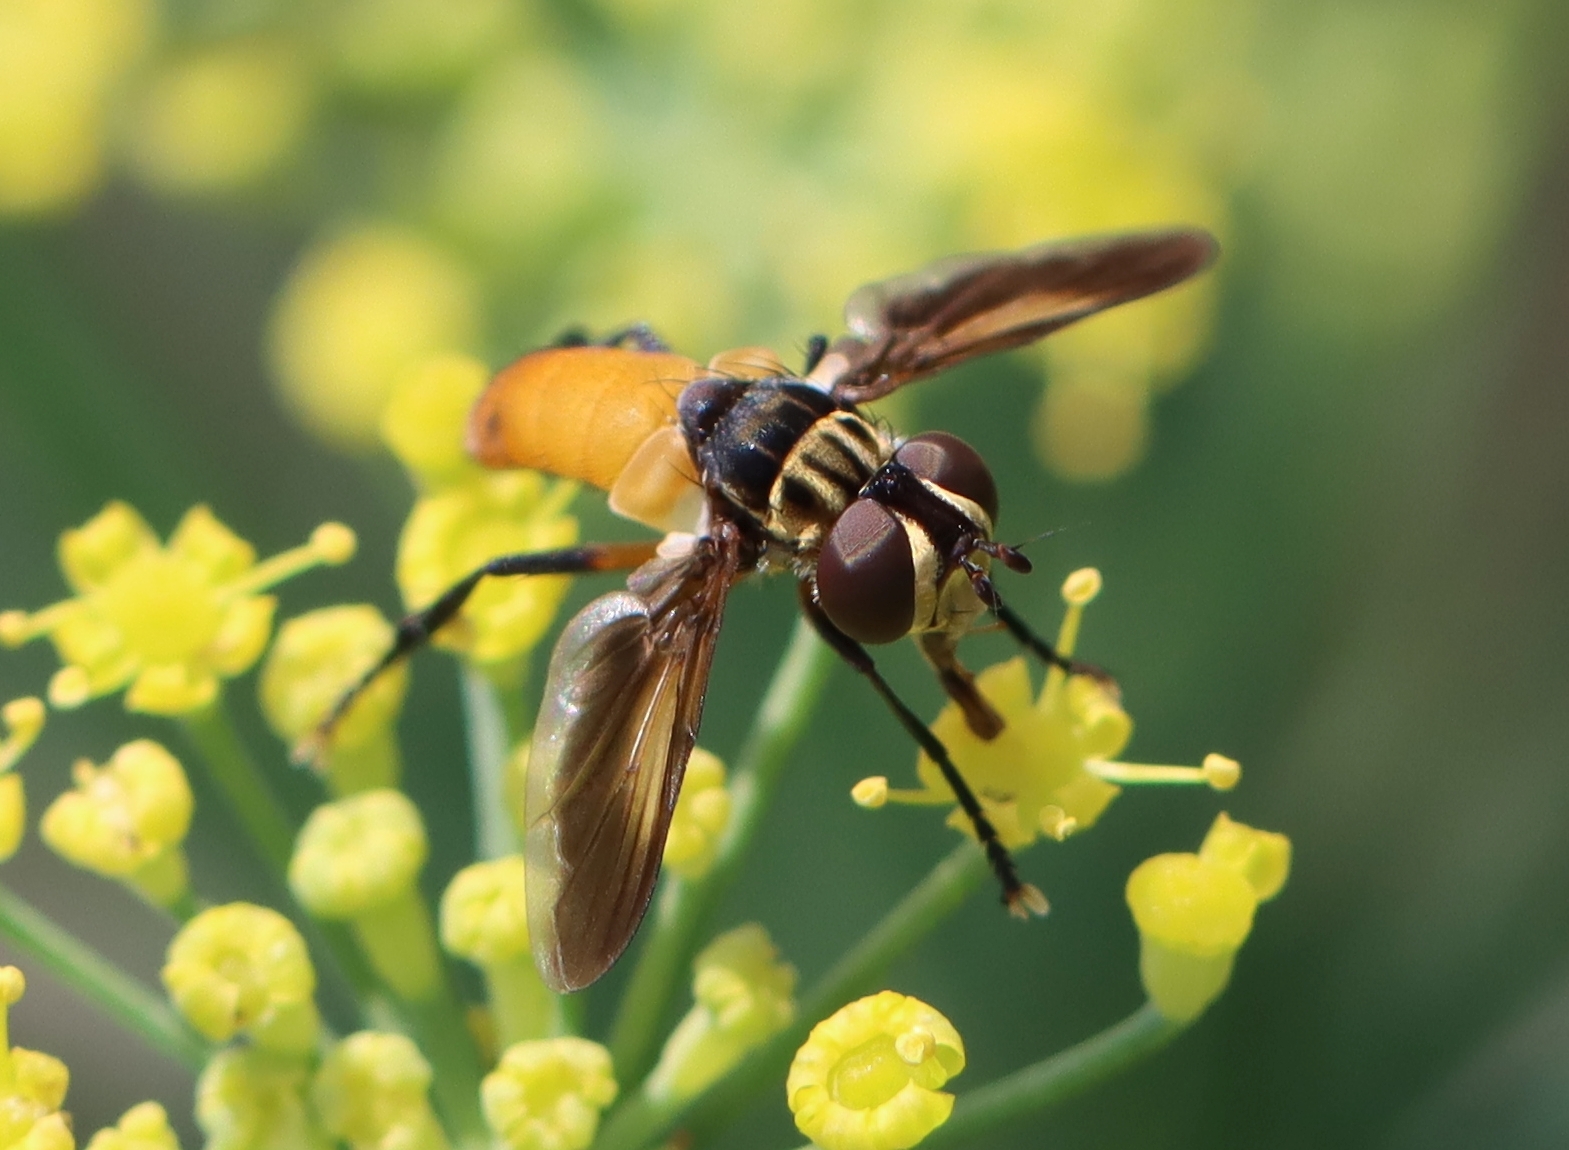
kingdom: Animalia
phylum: Arthropoda
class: Insecta
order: Diptera
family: Tachinidae
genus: Trichopoda
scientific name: Trichopoda pennipes
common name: Tachinid fly
